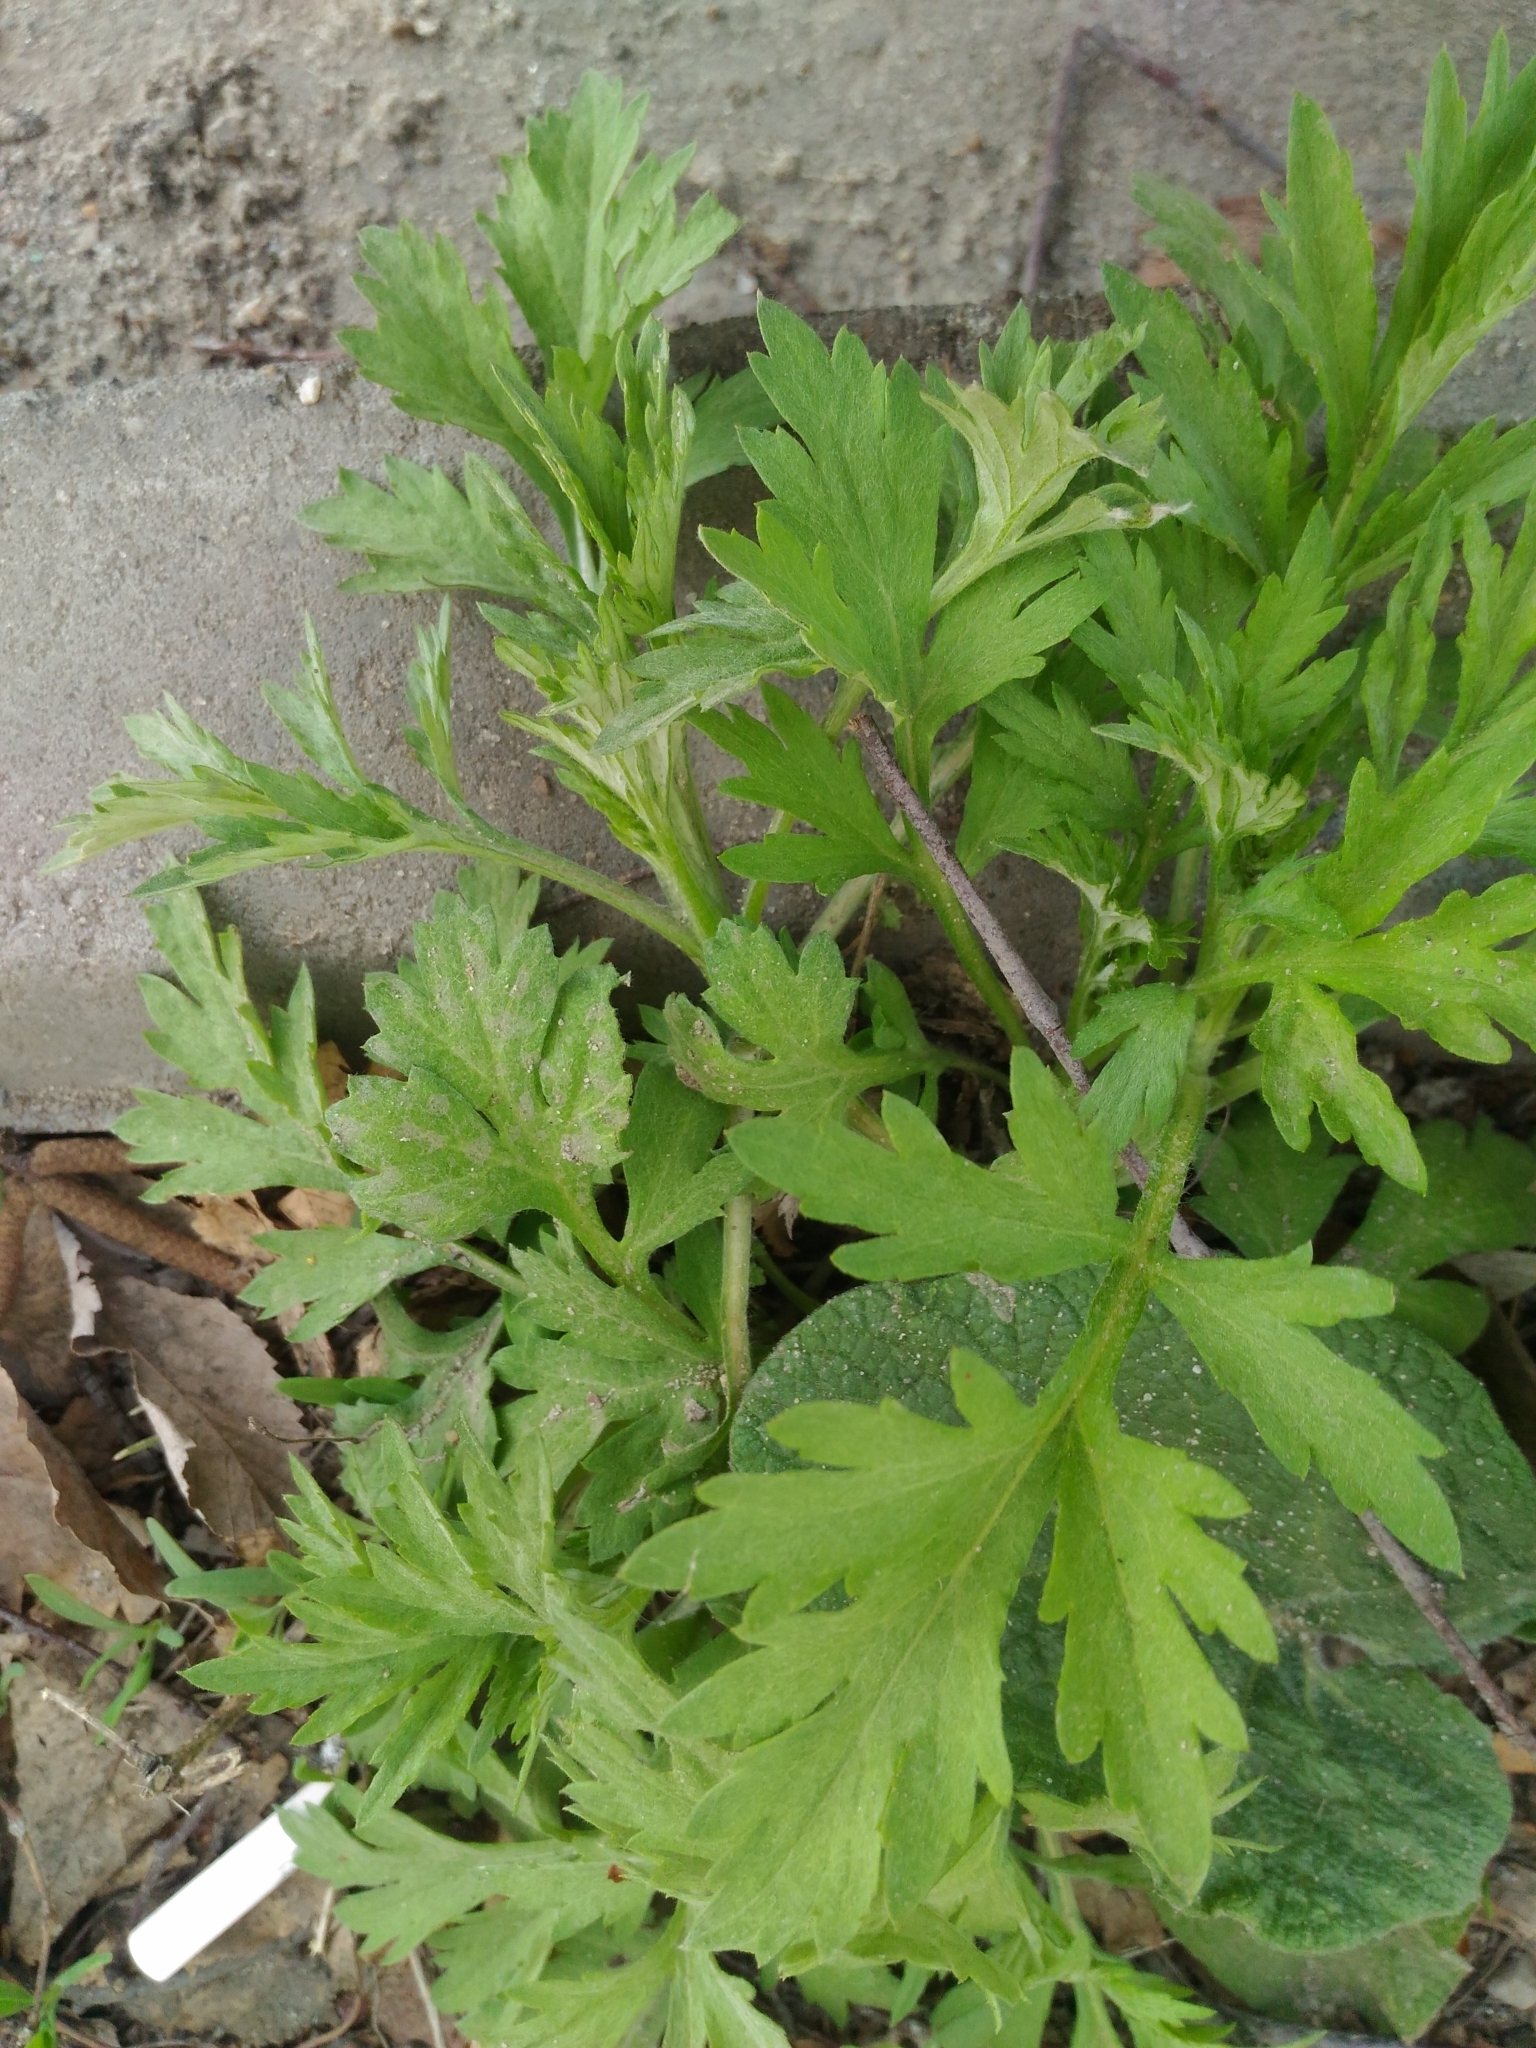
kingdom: Plantae
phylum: Tracheophyta
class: Magnoliopsida
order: Asterales
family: Asteraceae
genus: Artemisia
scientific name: Artemisia vulgaris
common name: Mugwort
